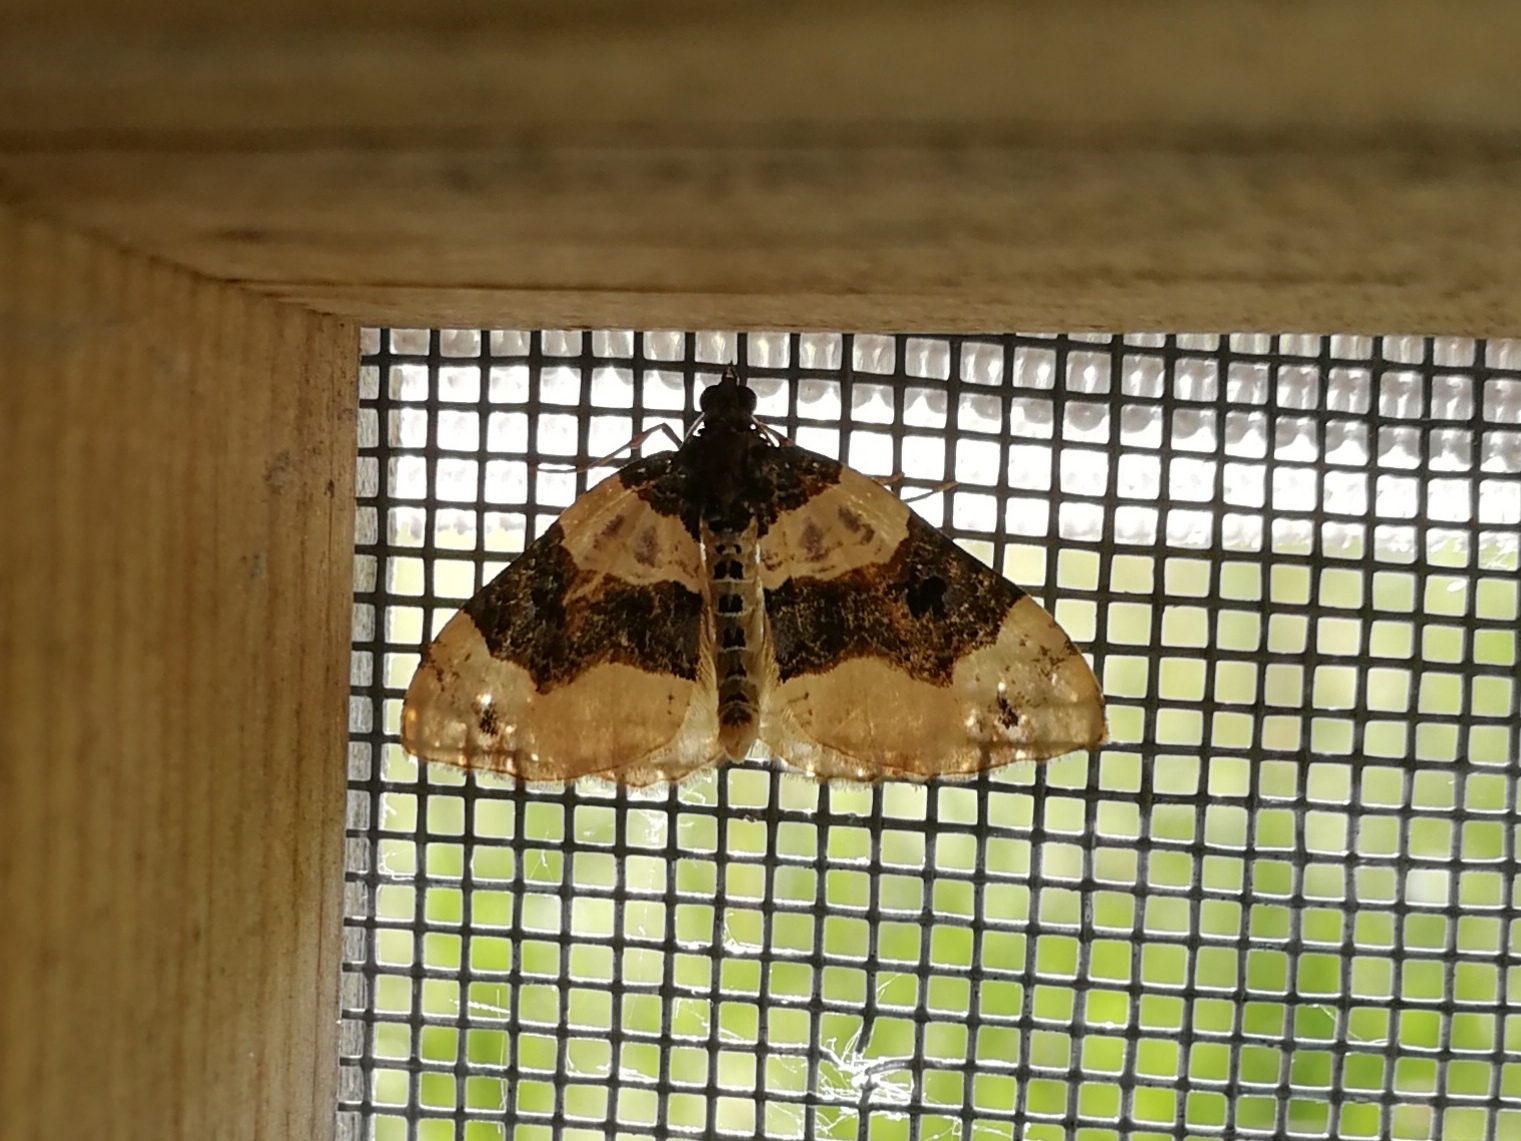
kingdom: Animalia
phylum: Arthropoda
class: Insecta
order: Lepidoptera
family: Geometridae
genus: Cosmorhoe
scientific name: Cosmorhoe ocellata
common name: Purple bar
